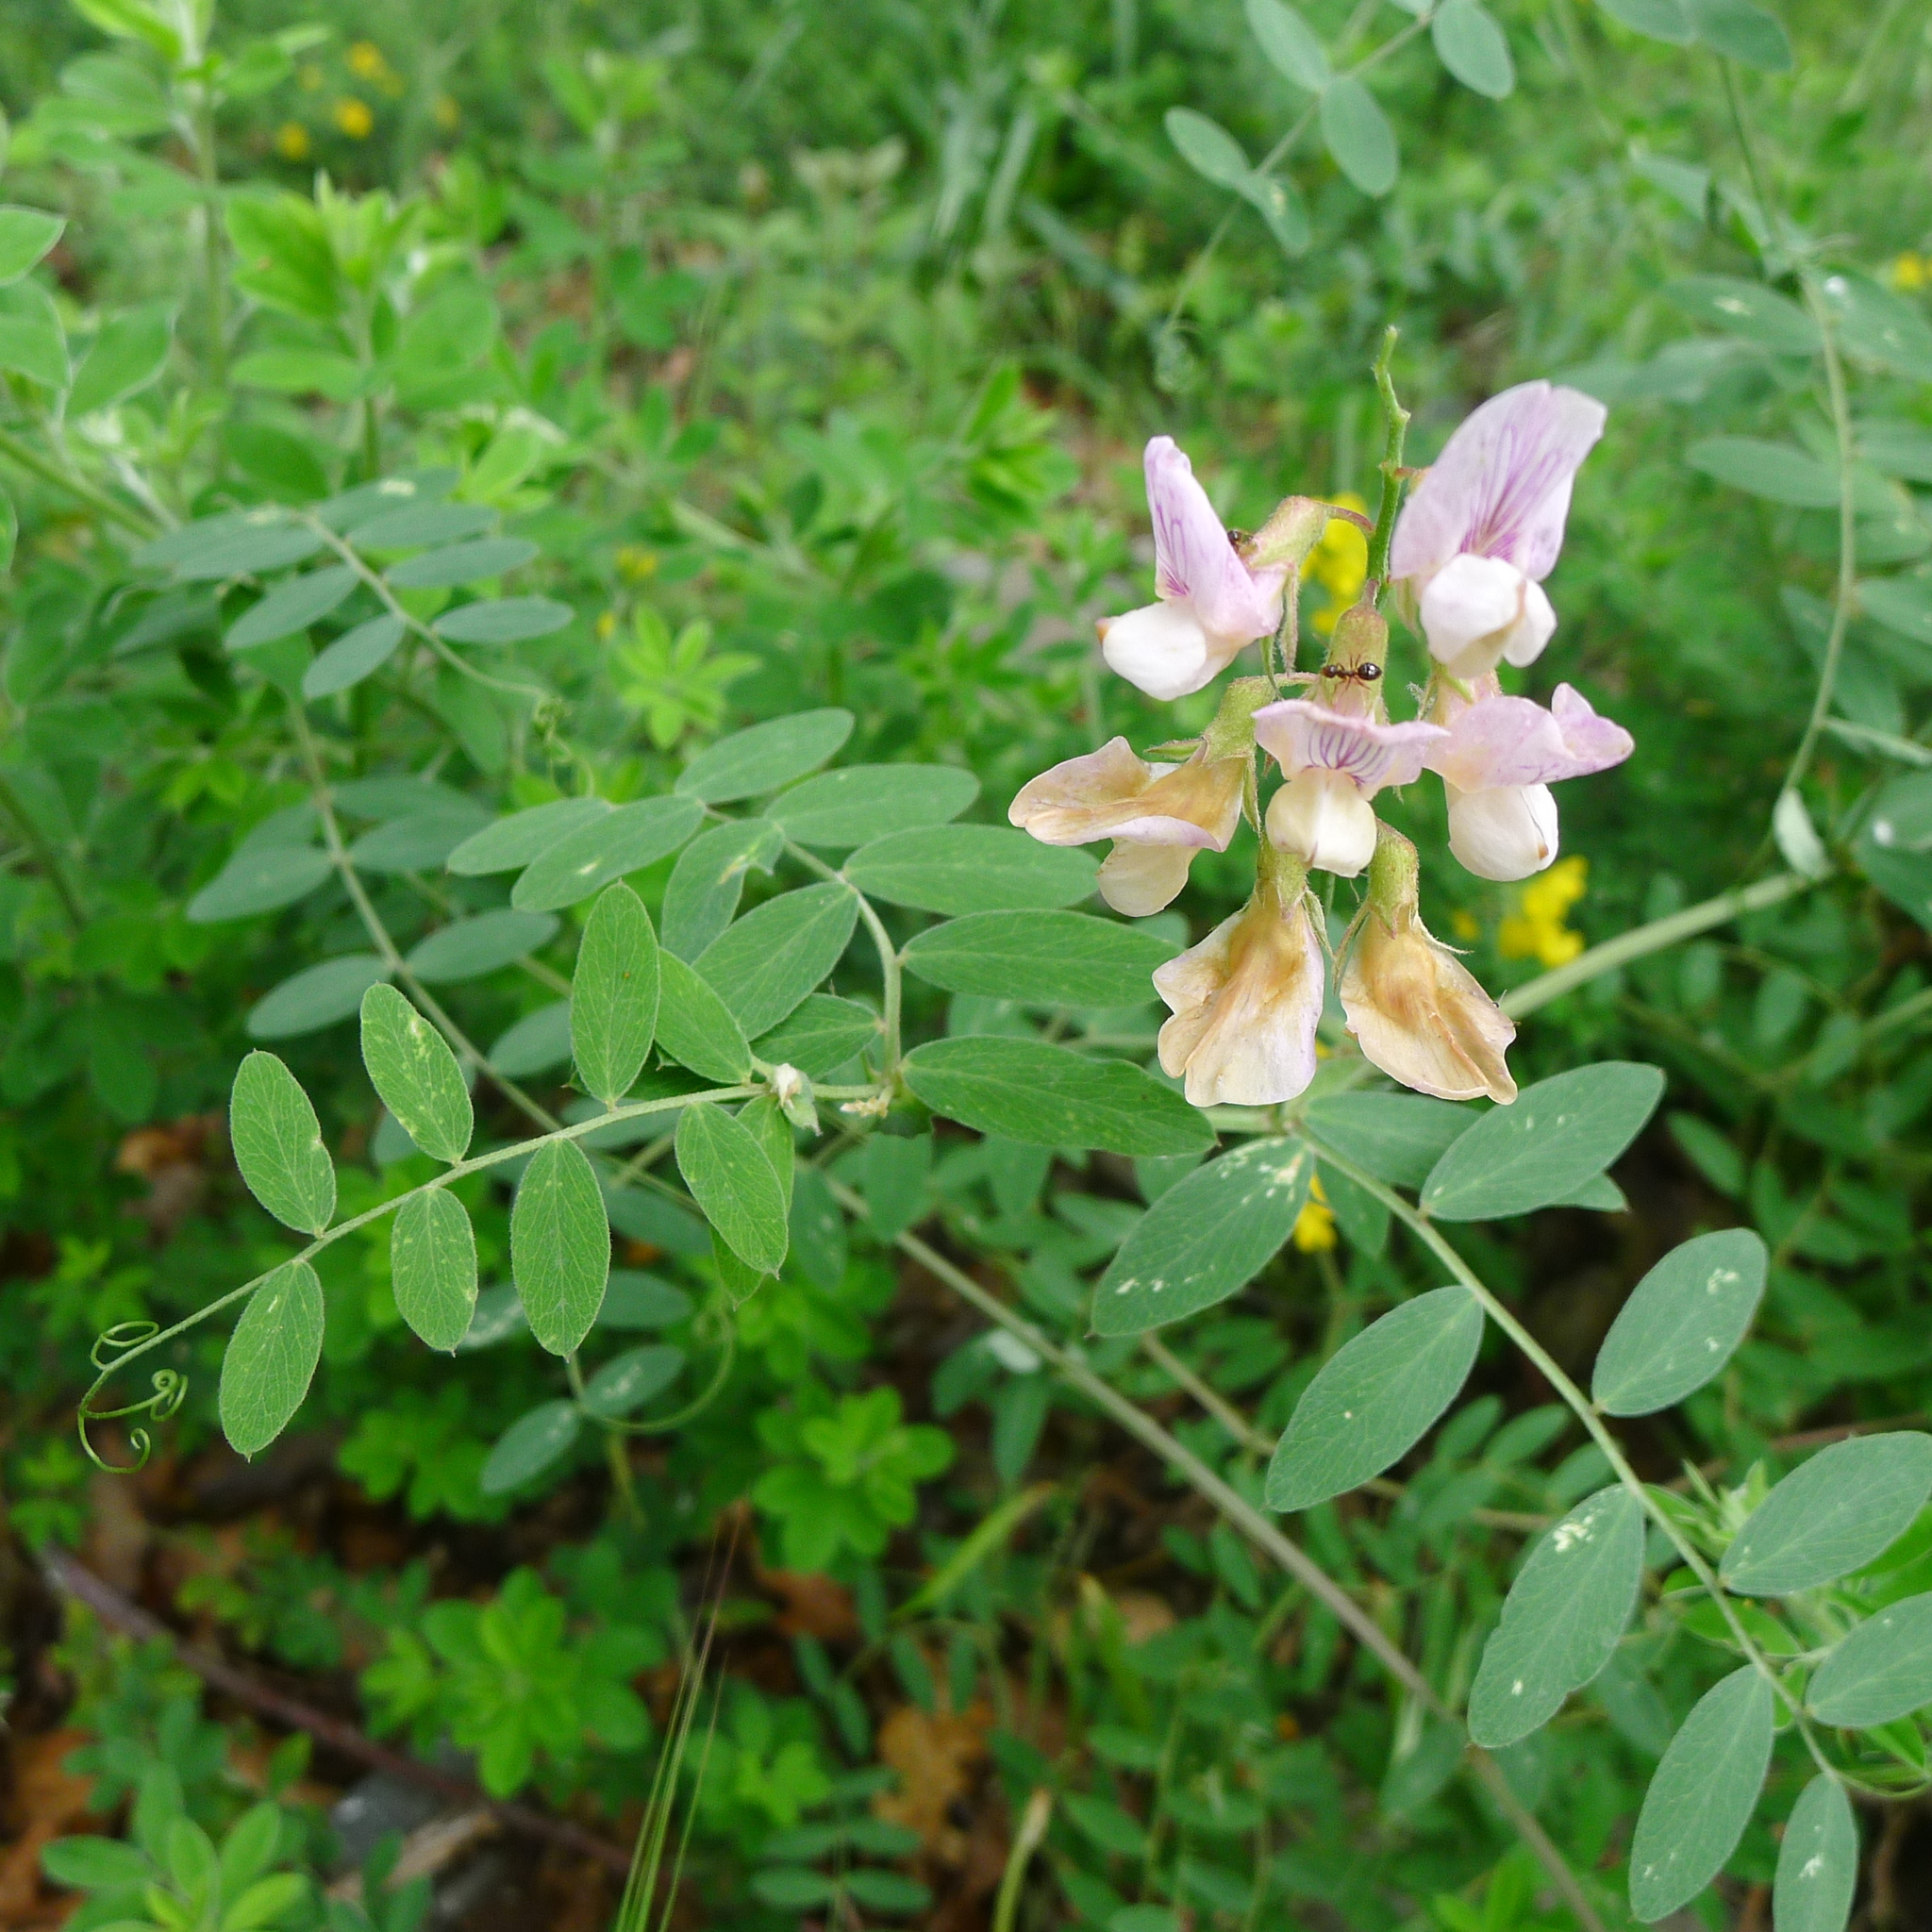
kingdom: Plantae
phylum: Tracheophyta
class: Magnoliopsida
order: Fabales
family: Fabaceae
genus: Vicia
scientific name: Vicia americana
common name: American vetch
